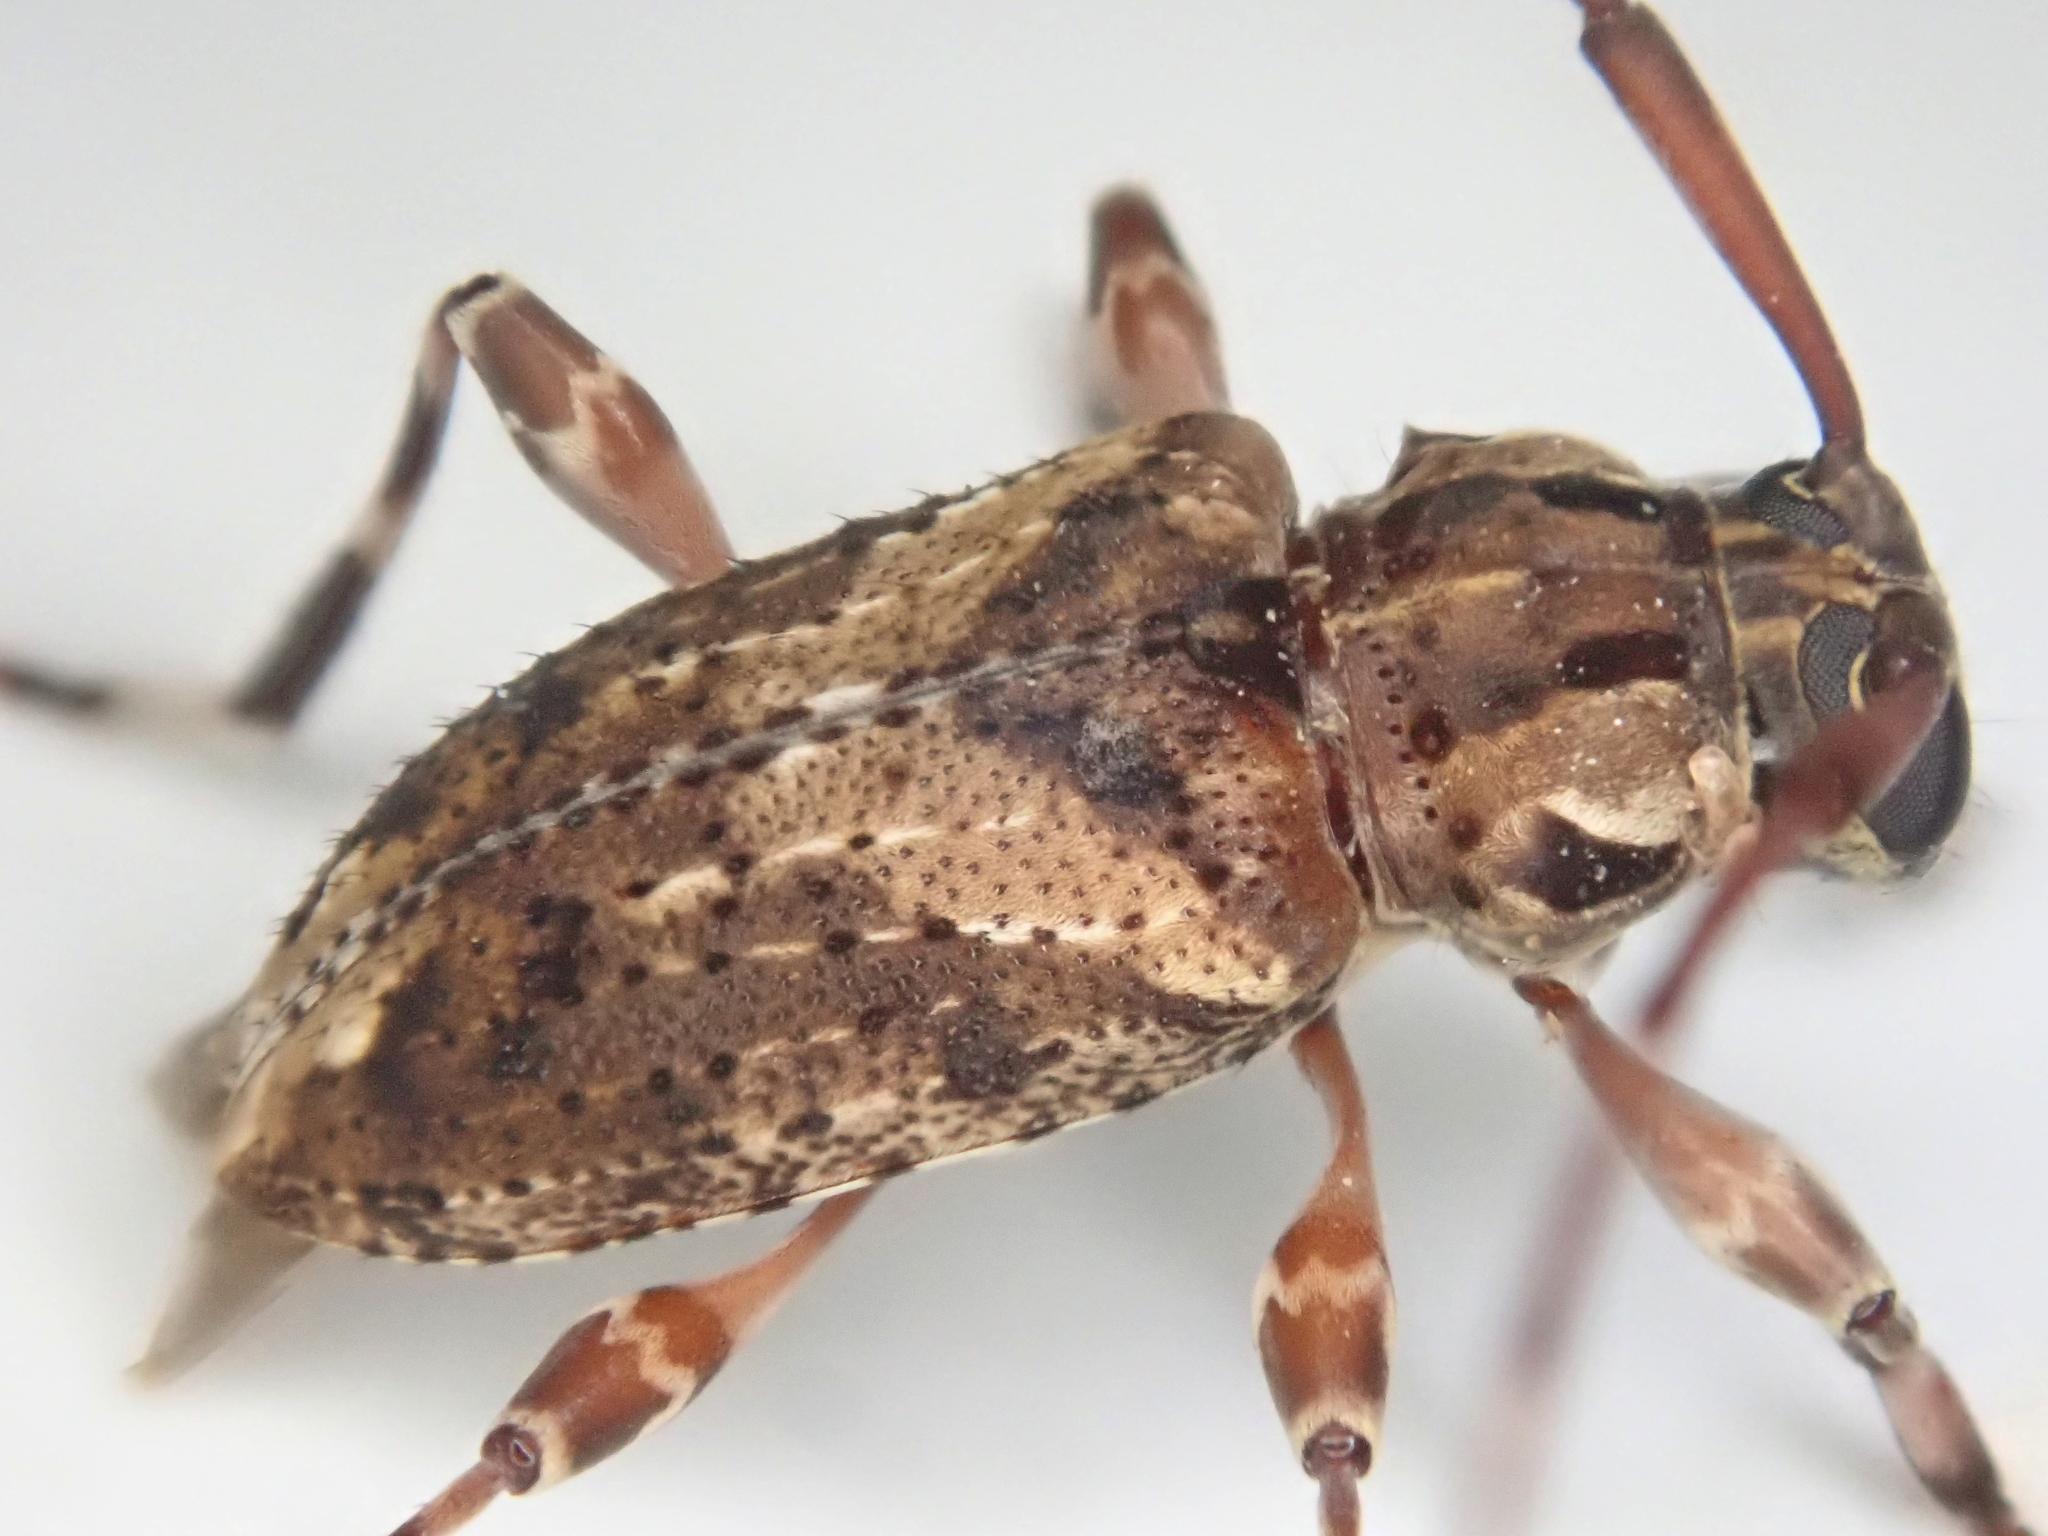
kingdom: Animalia
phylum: Arthropoda
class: Insecta
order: Coleoptera
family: Cerambycidae
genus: Oedopeza
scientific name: Oedopeza ocellator
